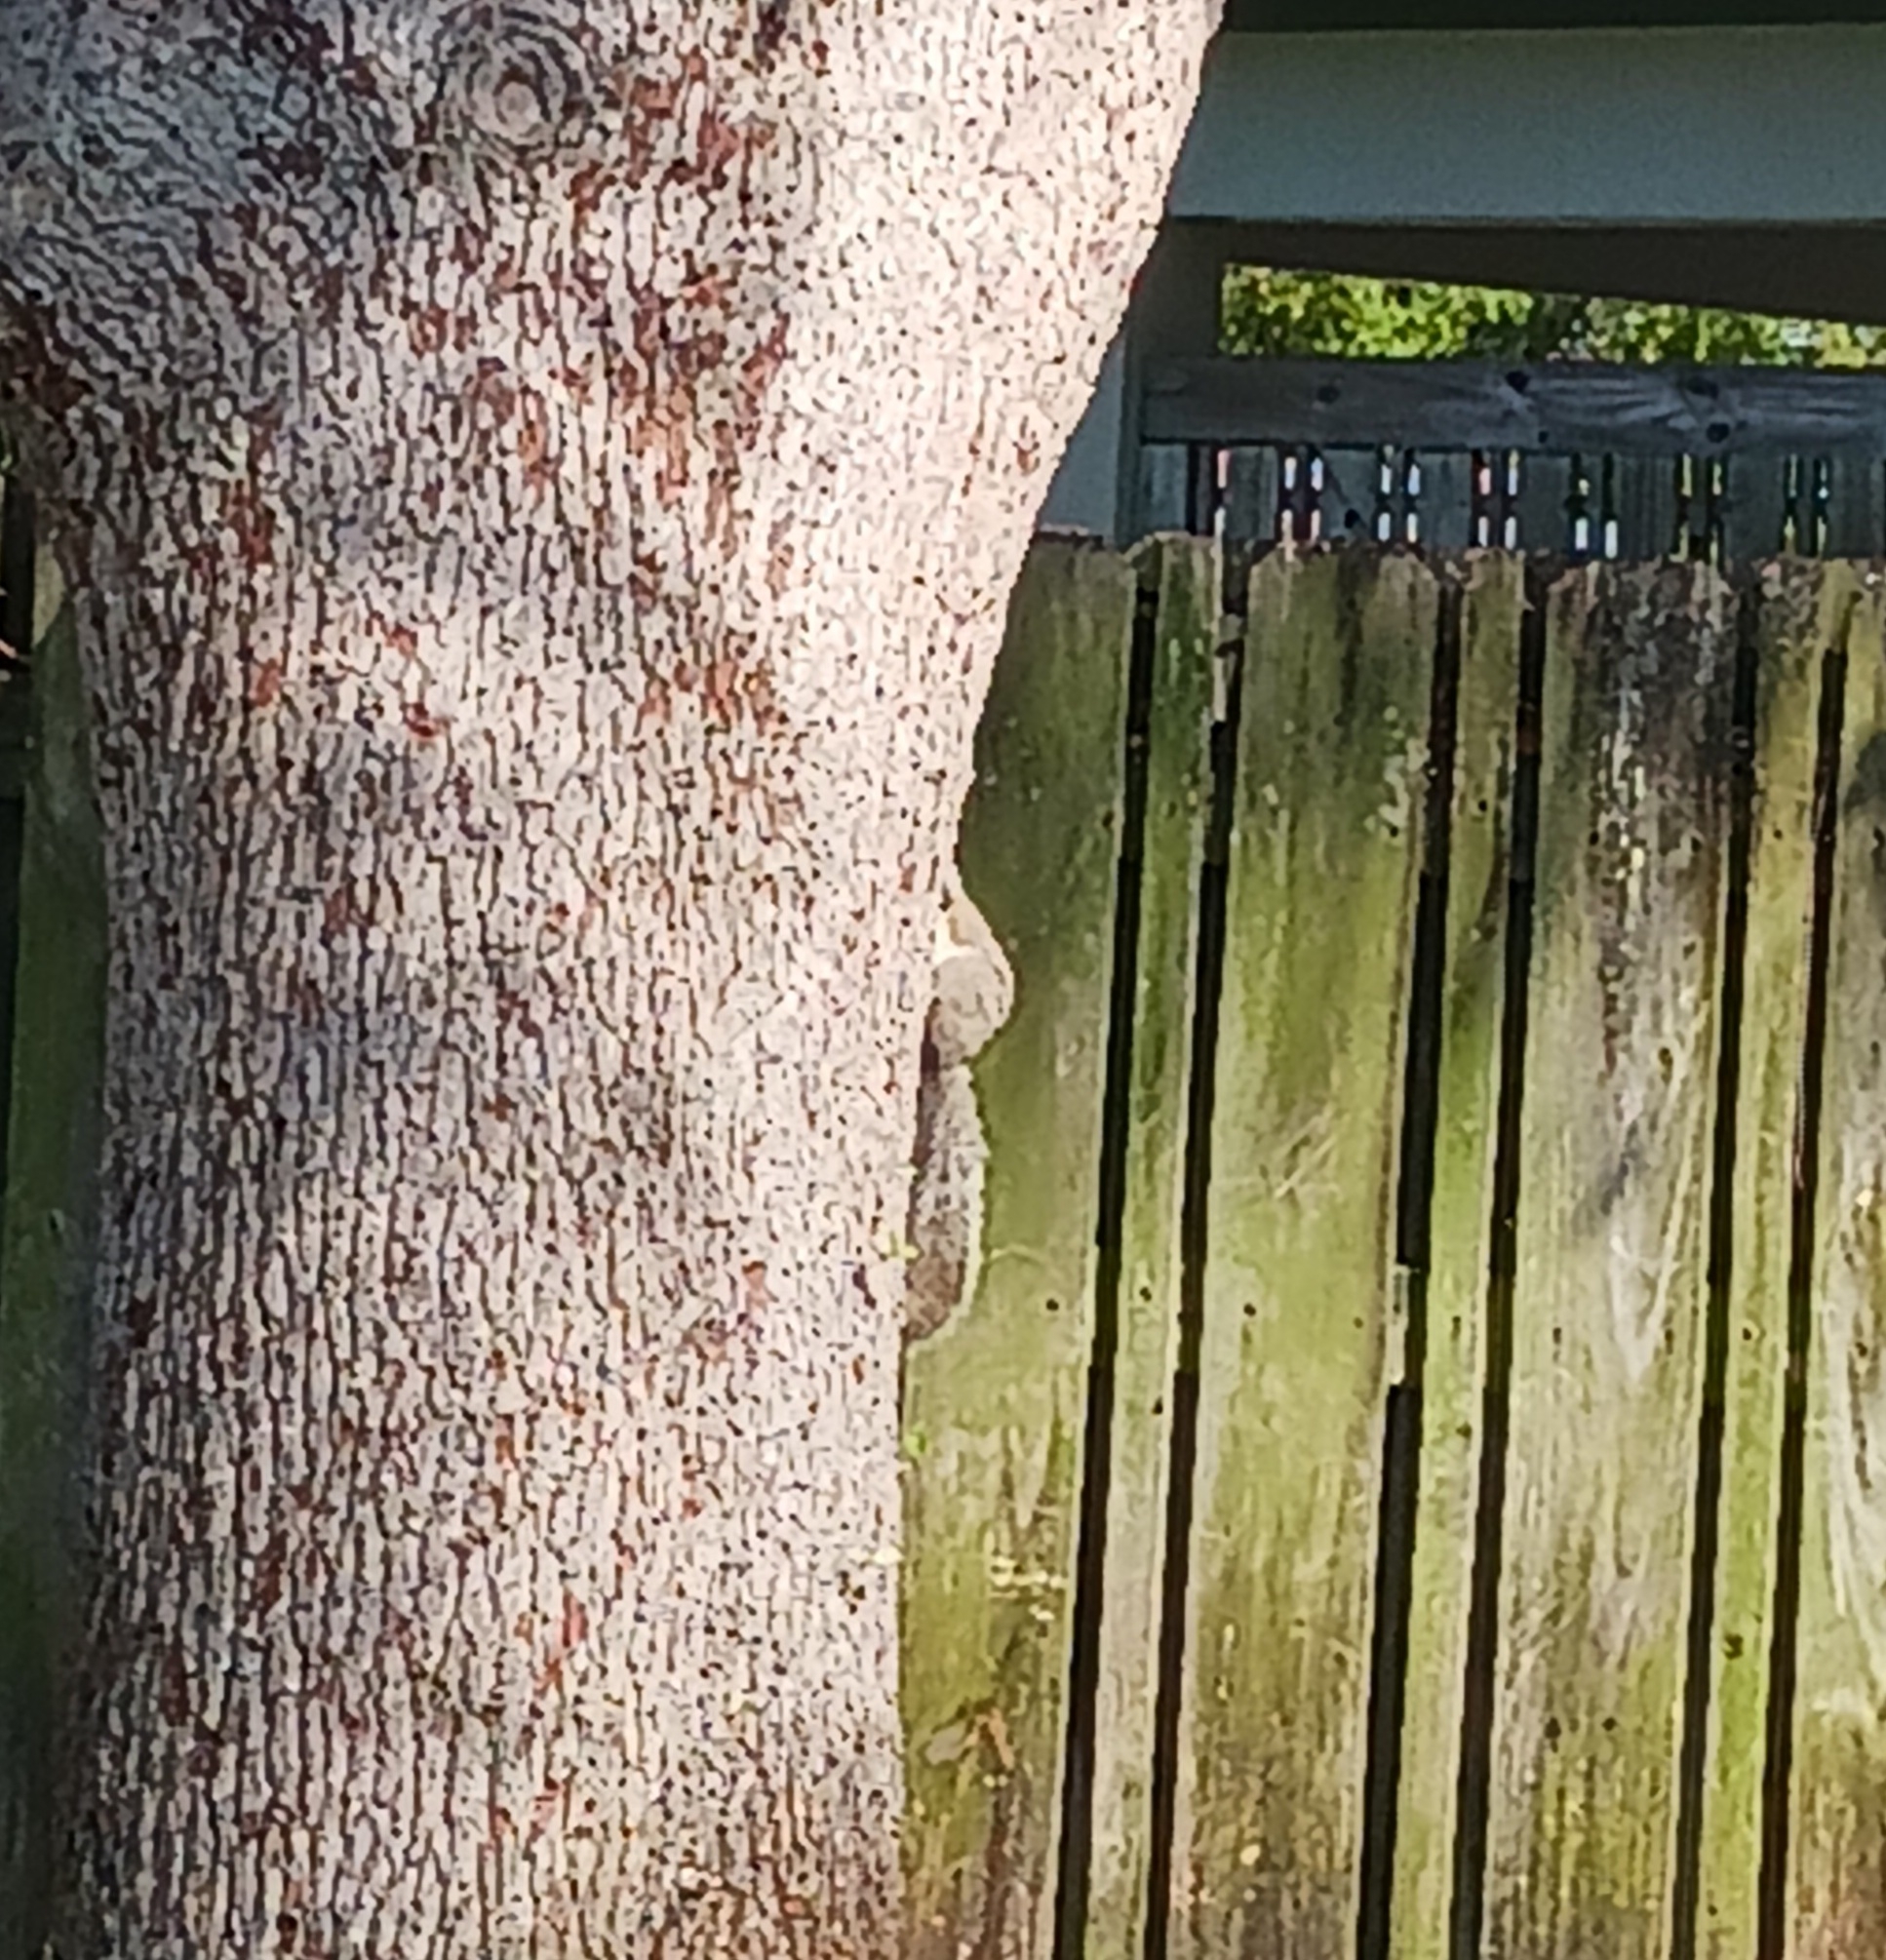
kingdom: Animalia
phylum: Chordata
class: Mammalia
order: Rodentia
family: Sciuridae
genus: Sciurus
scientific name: Sciurus carolinensis
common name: Eastern gray squirrel
